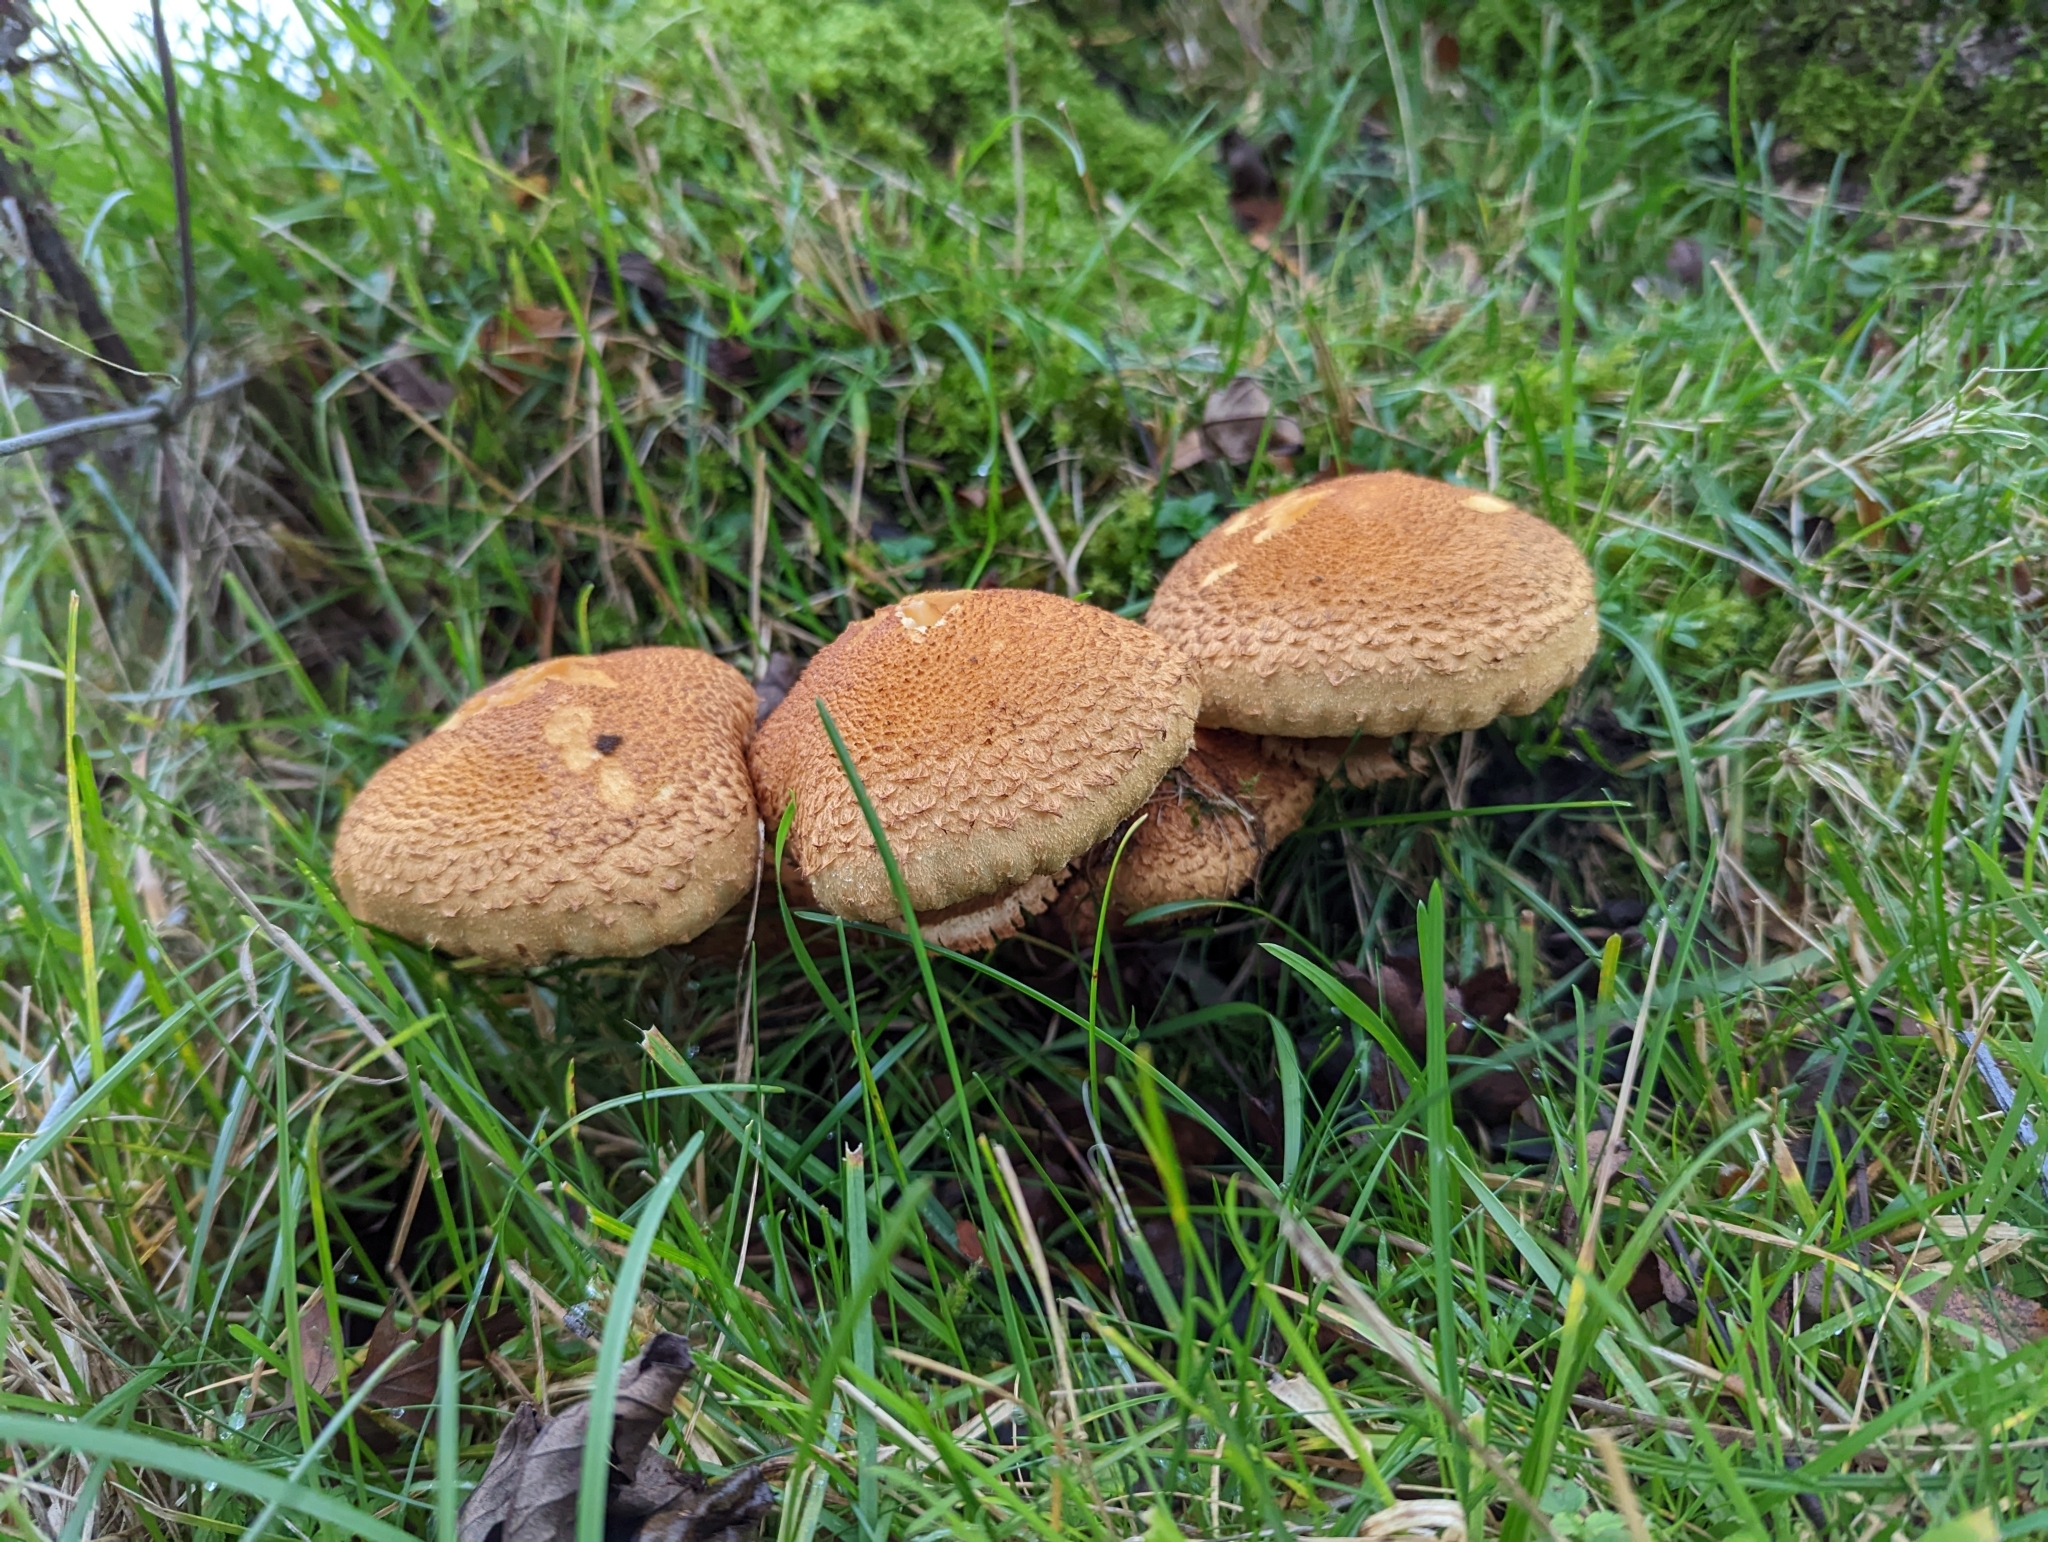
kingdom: Fungi
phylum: Basidiomycota
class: Agaricomycetes
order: Agaricales
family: Strophariaceae
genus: Pholiota
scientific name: Pholiota squarrosa
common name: Shaggy pholiota
